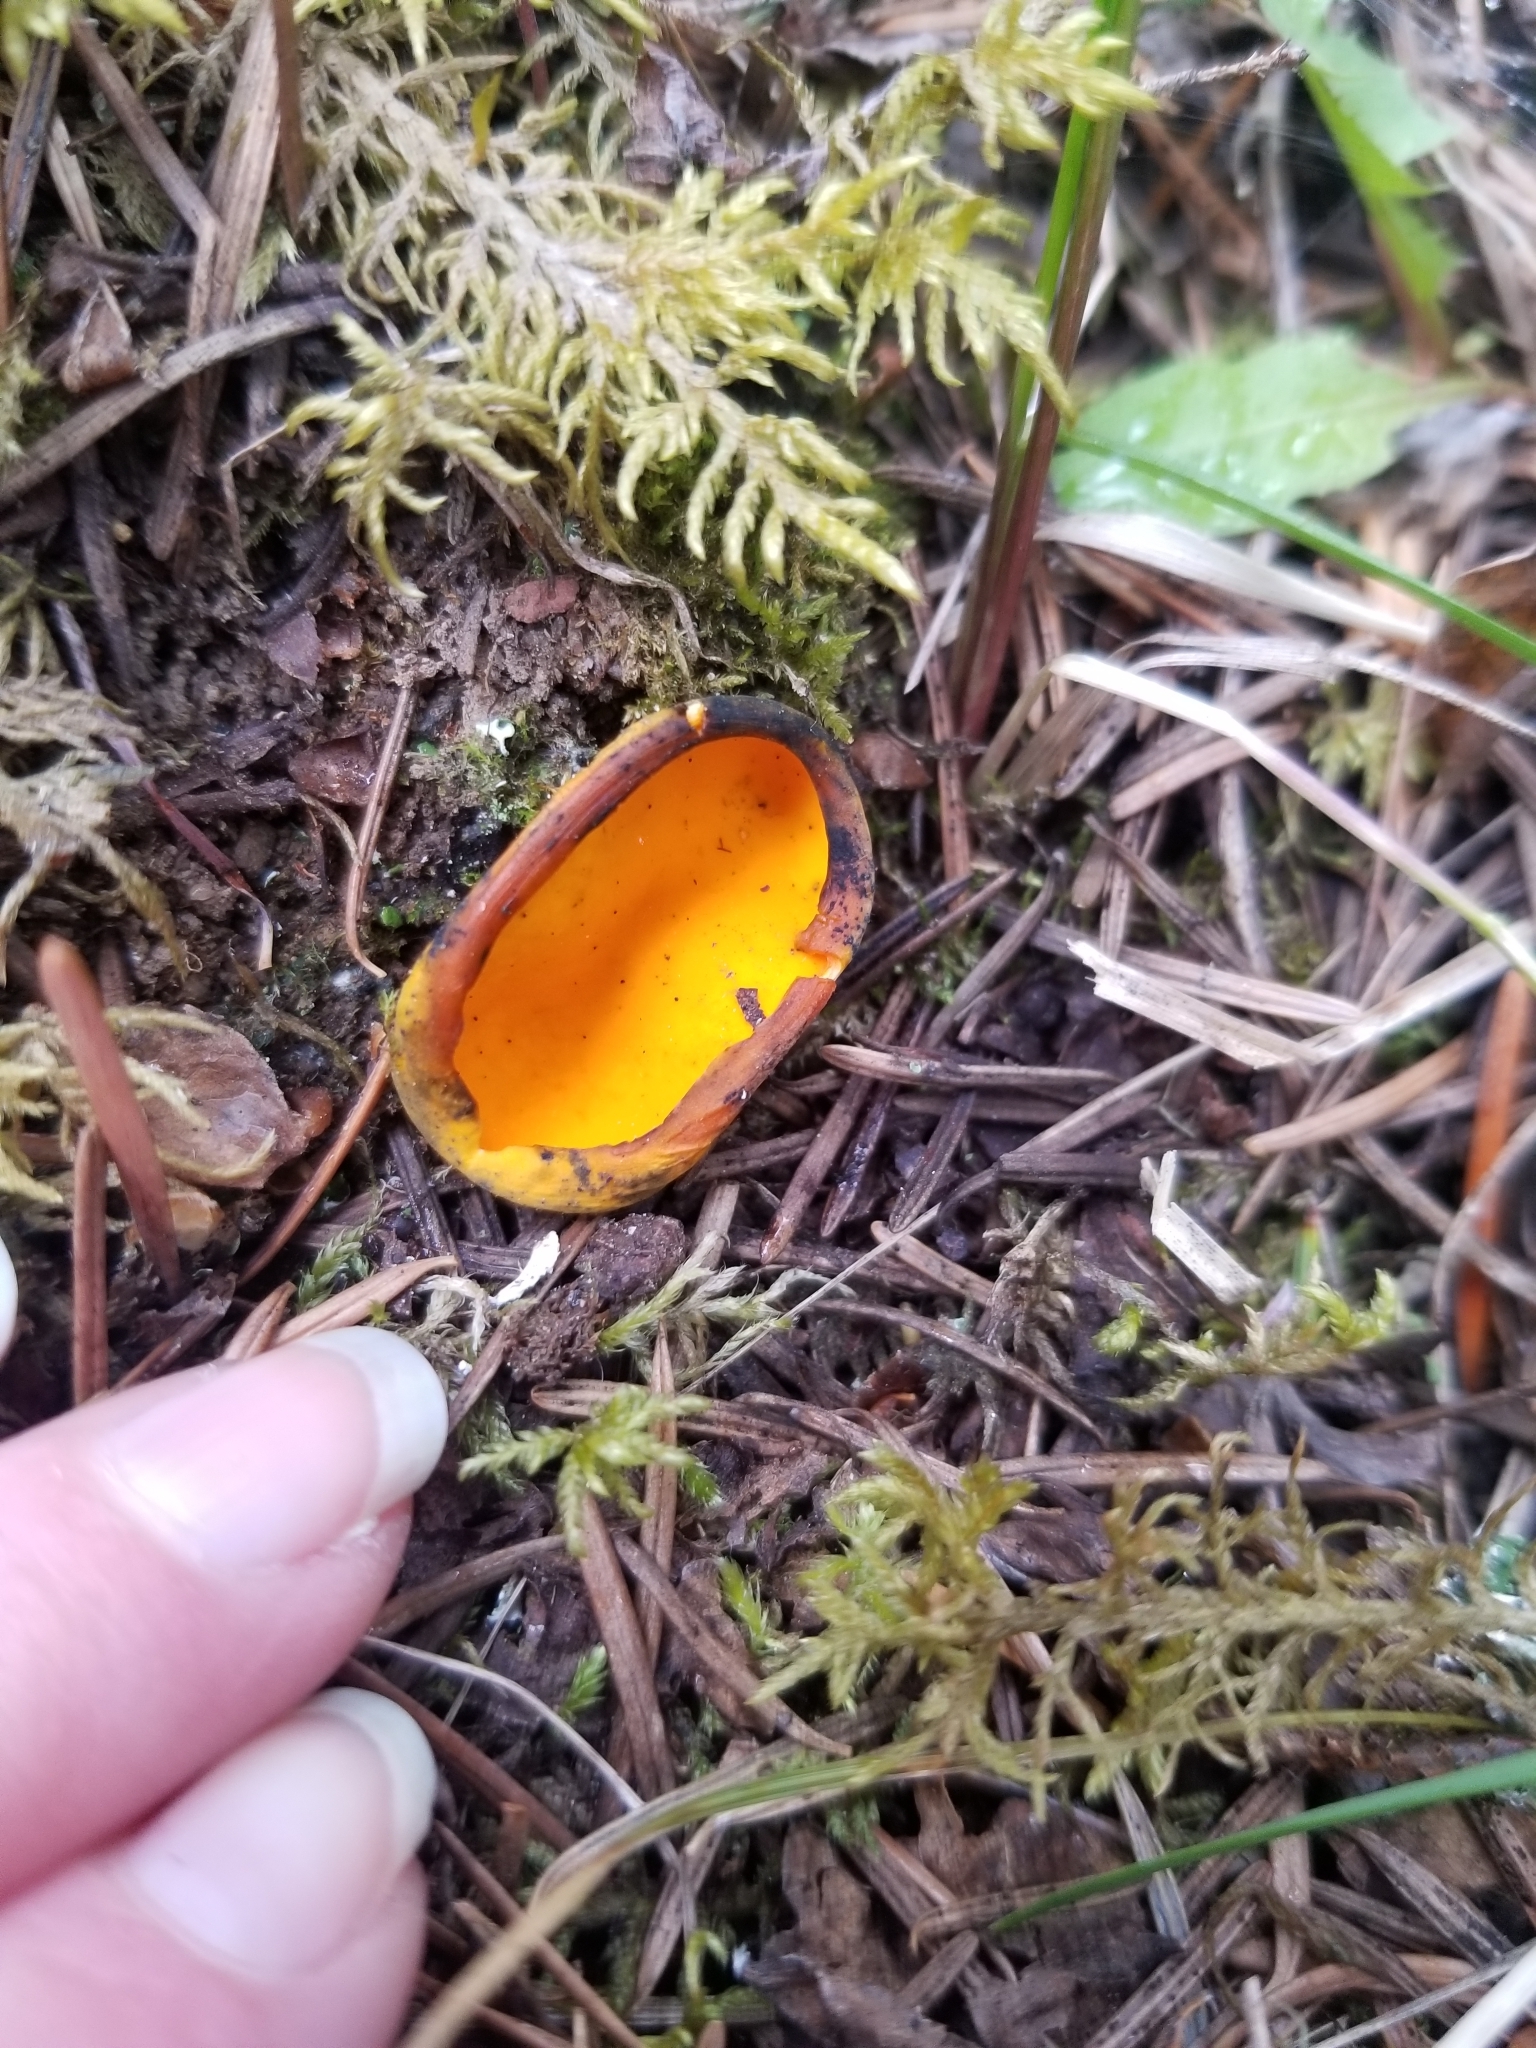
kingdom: Fungi
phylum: Ascomycota
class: Pezizomycetes
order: Pezizales
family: Caloscyphaceae
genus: Caloscypha
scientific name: Caloscypha fulgens
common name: Golden cup
